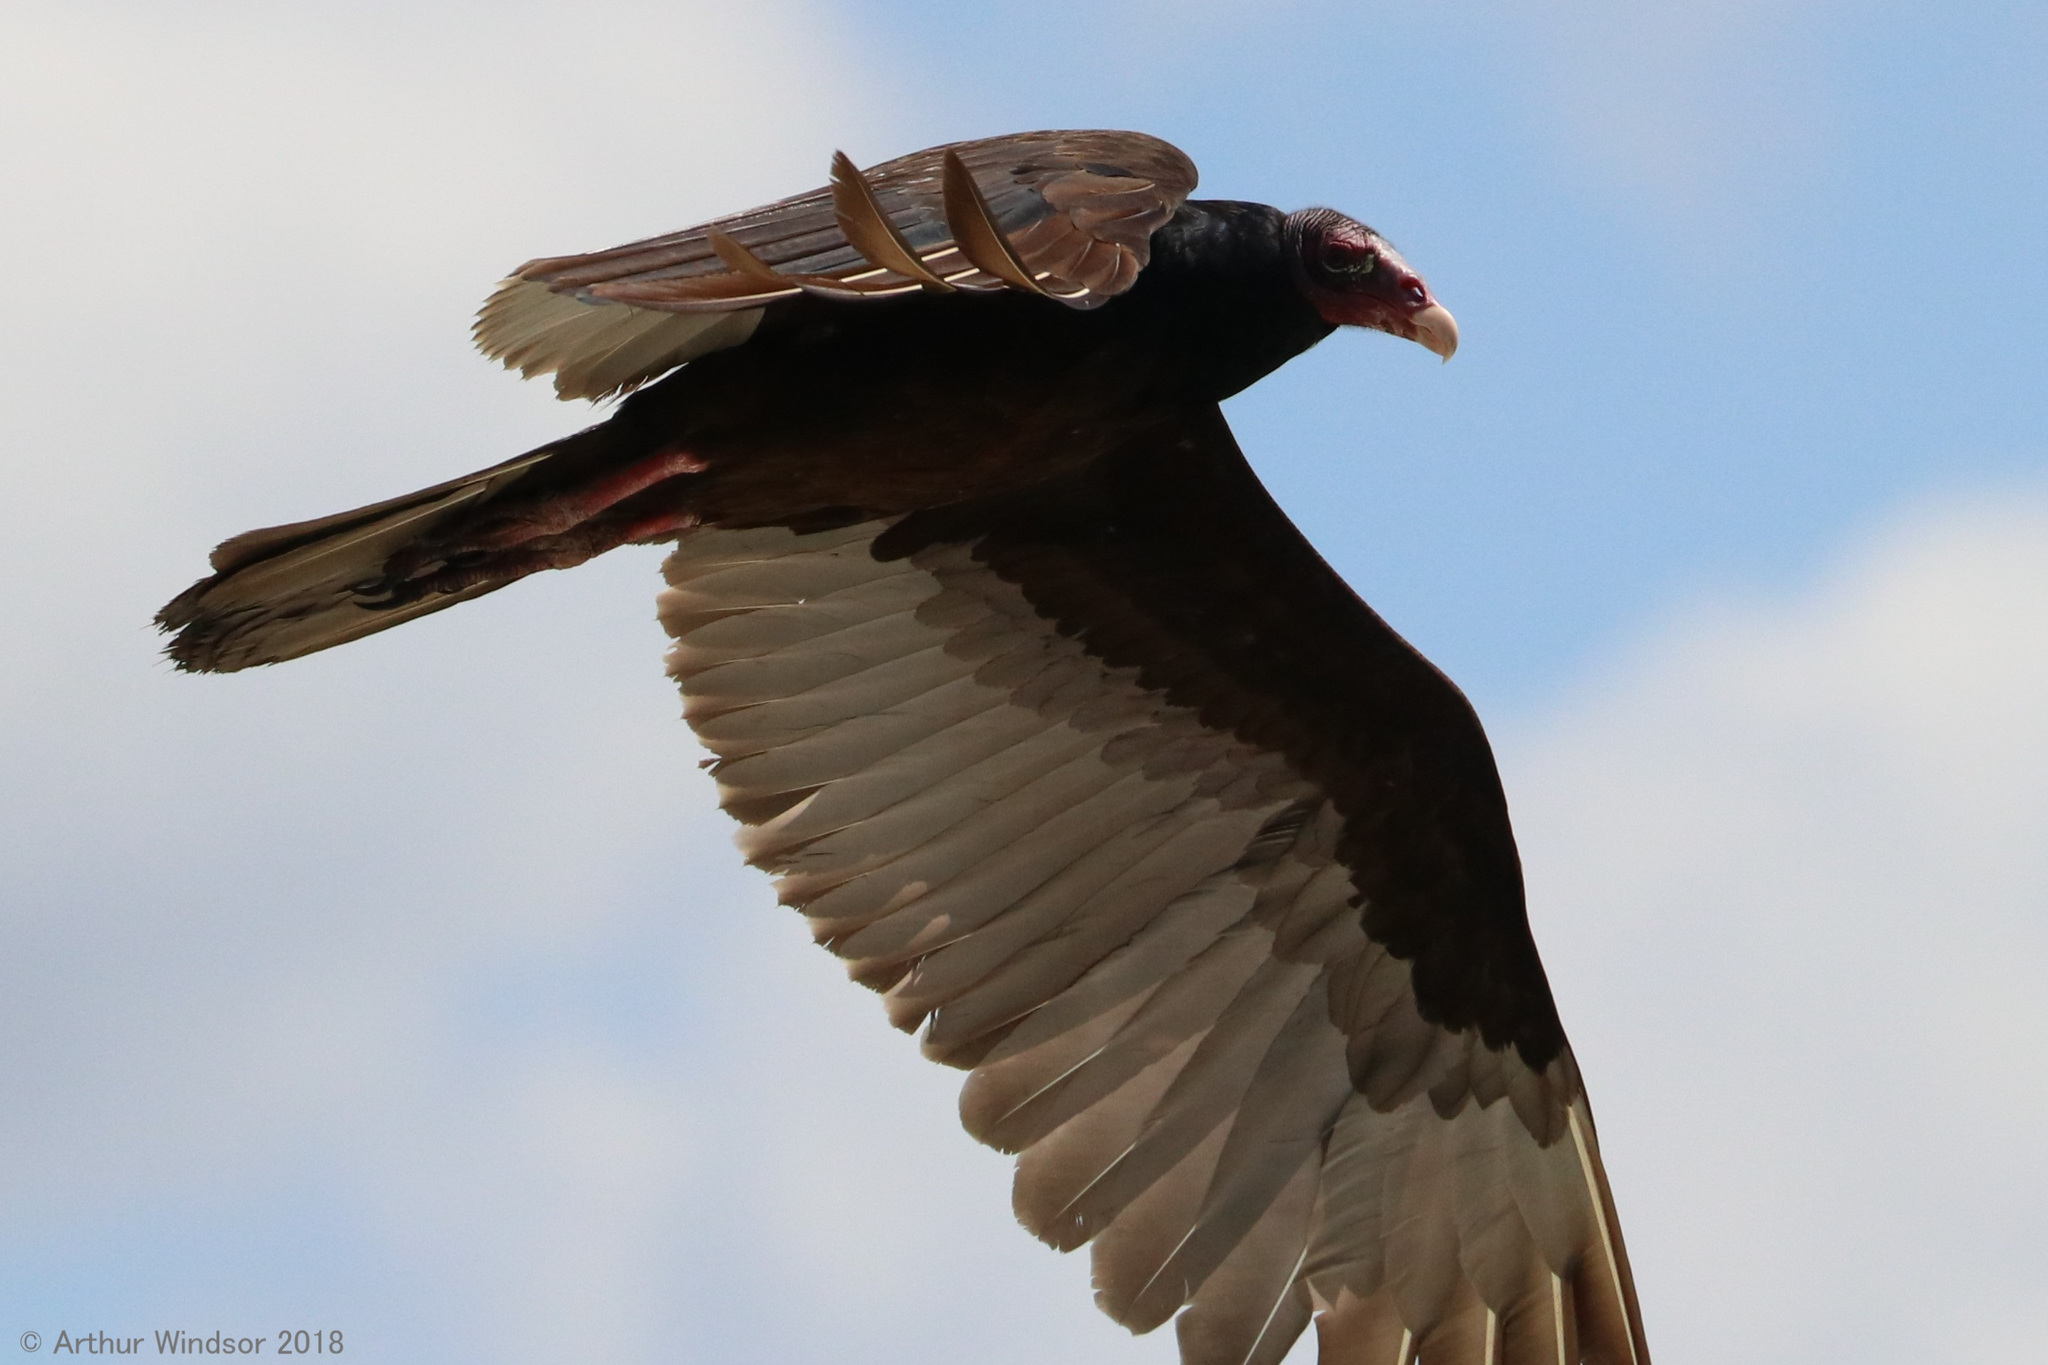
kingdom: Animalia
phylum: Chordata
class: Aves
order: Accipitriformes
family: Cathartidae
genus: Cathartes
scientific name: Cathartes aura
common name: Turkey vulture
